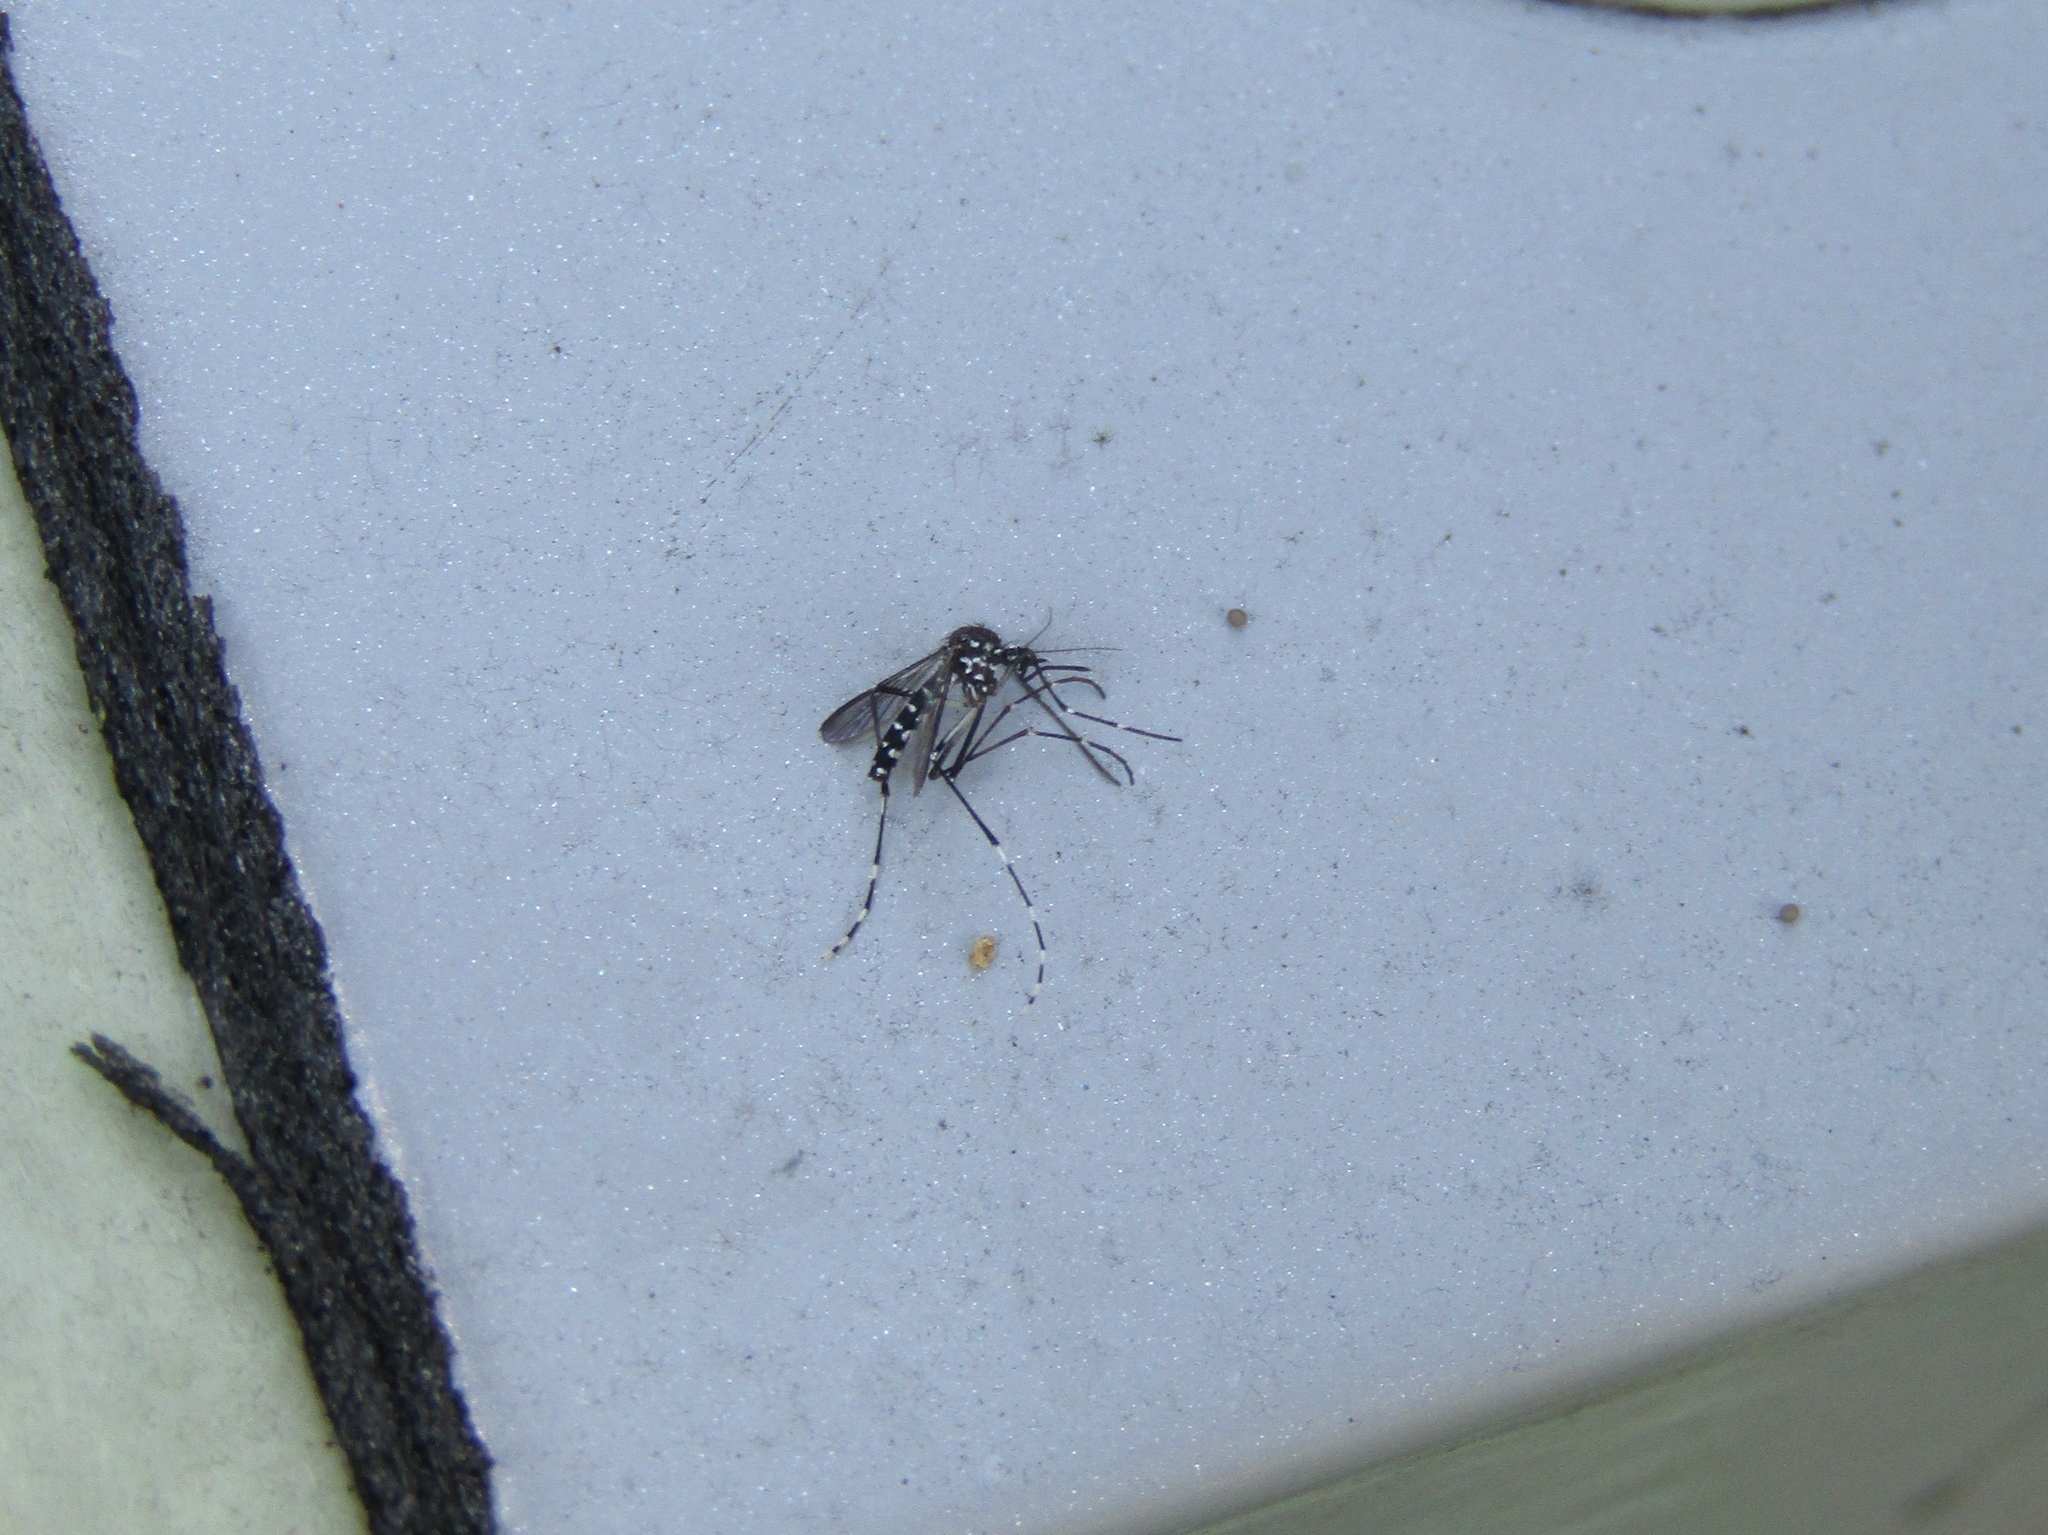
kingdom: Animalia
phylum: Arthropoda
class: Insecta
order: Diptera
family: Culicidae
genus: Aedes
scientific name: Aedes albopictus
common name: Tiger mosquito
